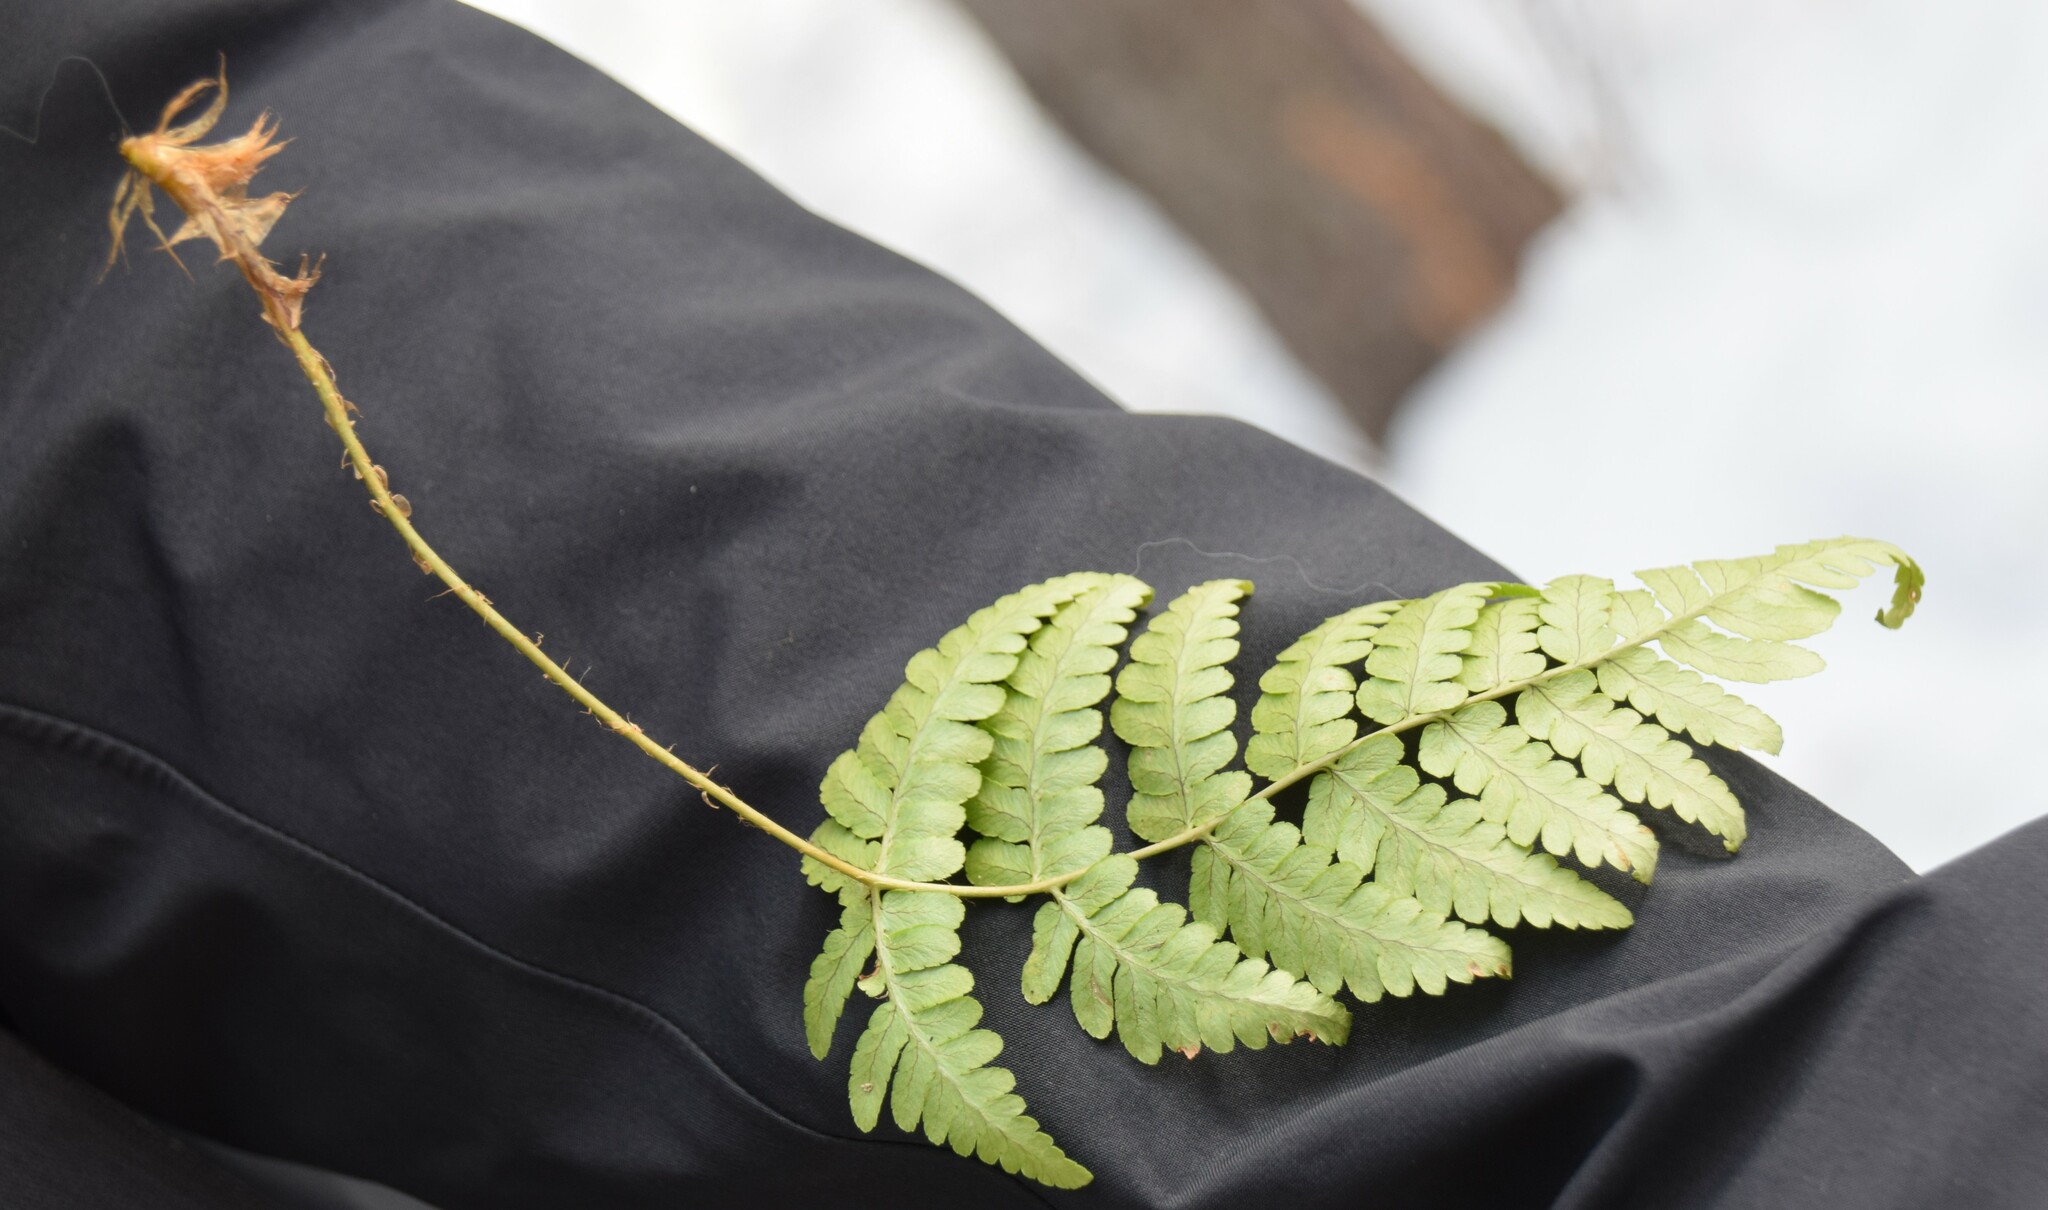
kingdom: Plantae
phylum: Tracheophyta
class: Polypodiopsida
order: Polypodiales
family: Dryopteridaceae
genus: Dryopteris
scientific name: Dryopteris marginalis
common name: Marginal wood fern
